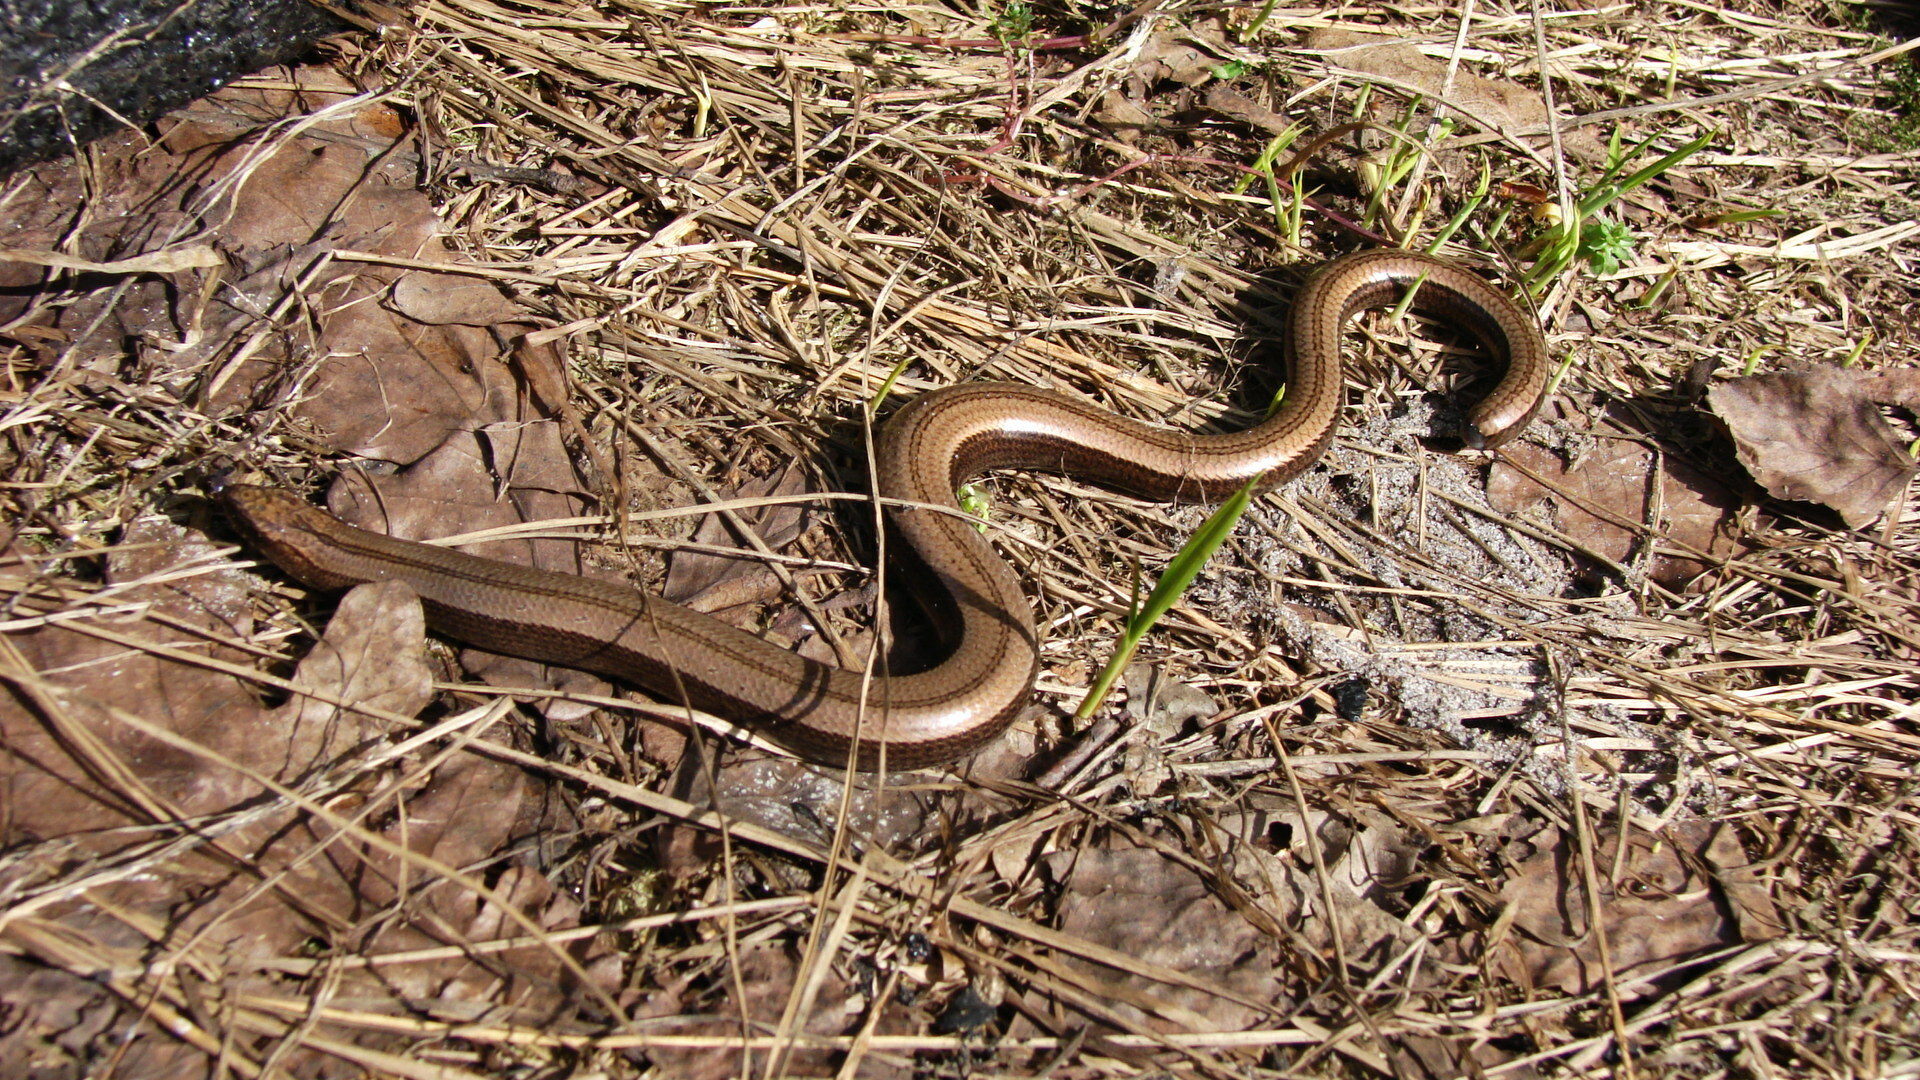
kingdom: Animalia
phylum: Chordata
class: Squamata
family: Anguidae
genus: Anguis
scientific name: Anguis colchica
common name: Slow worm
